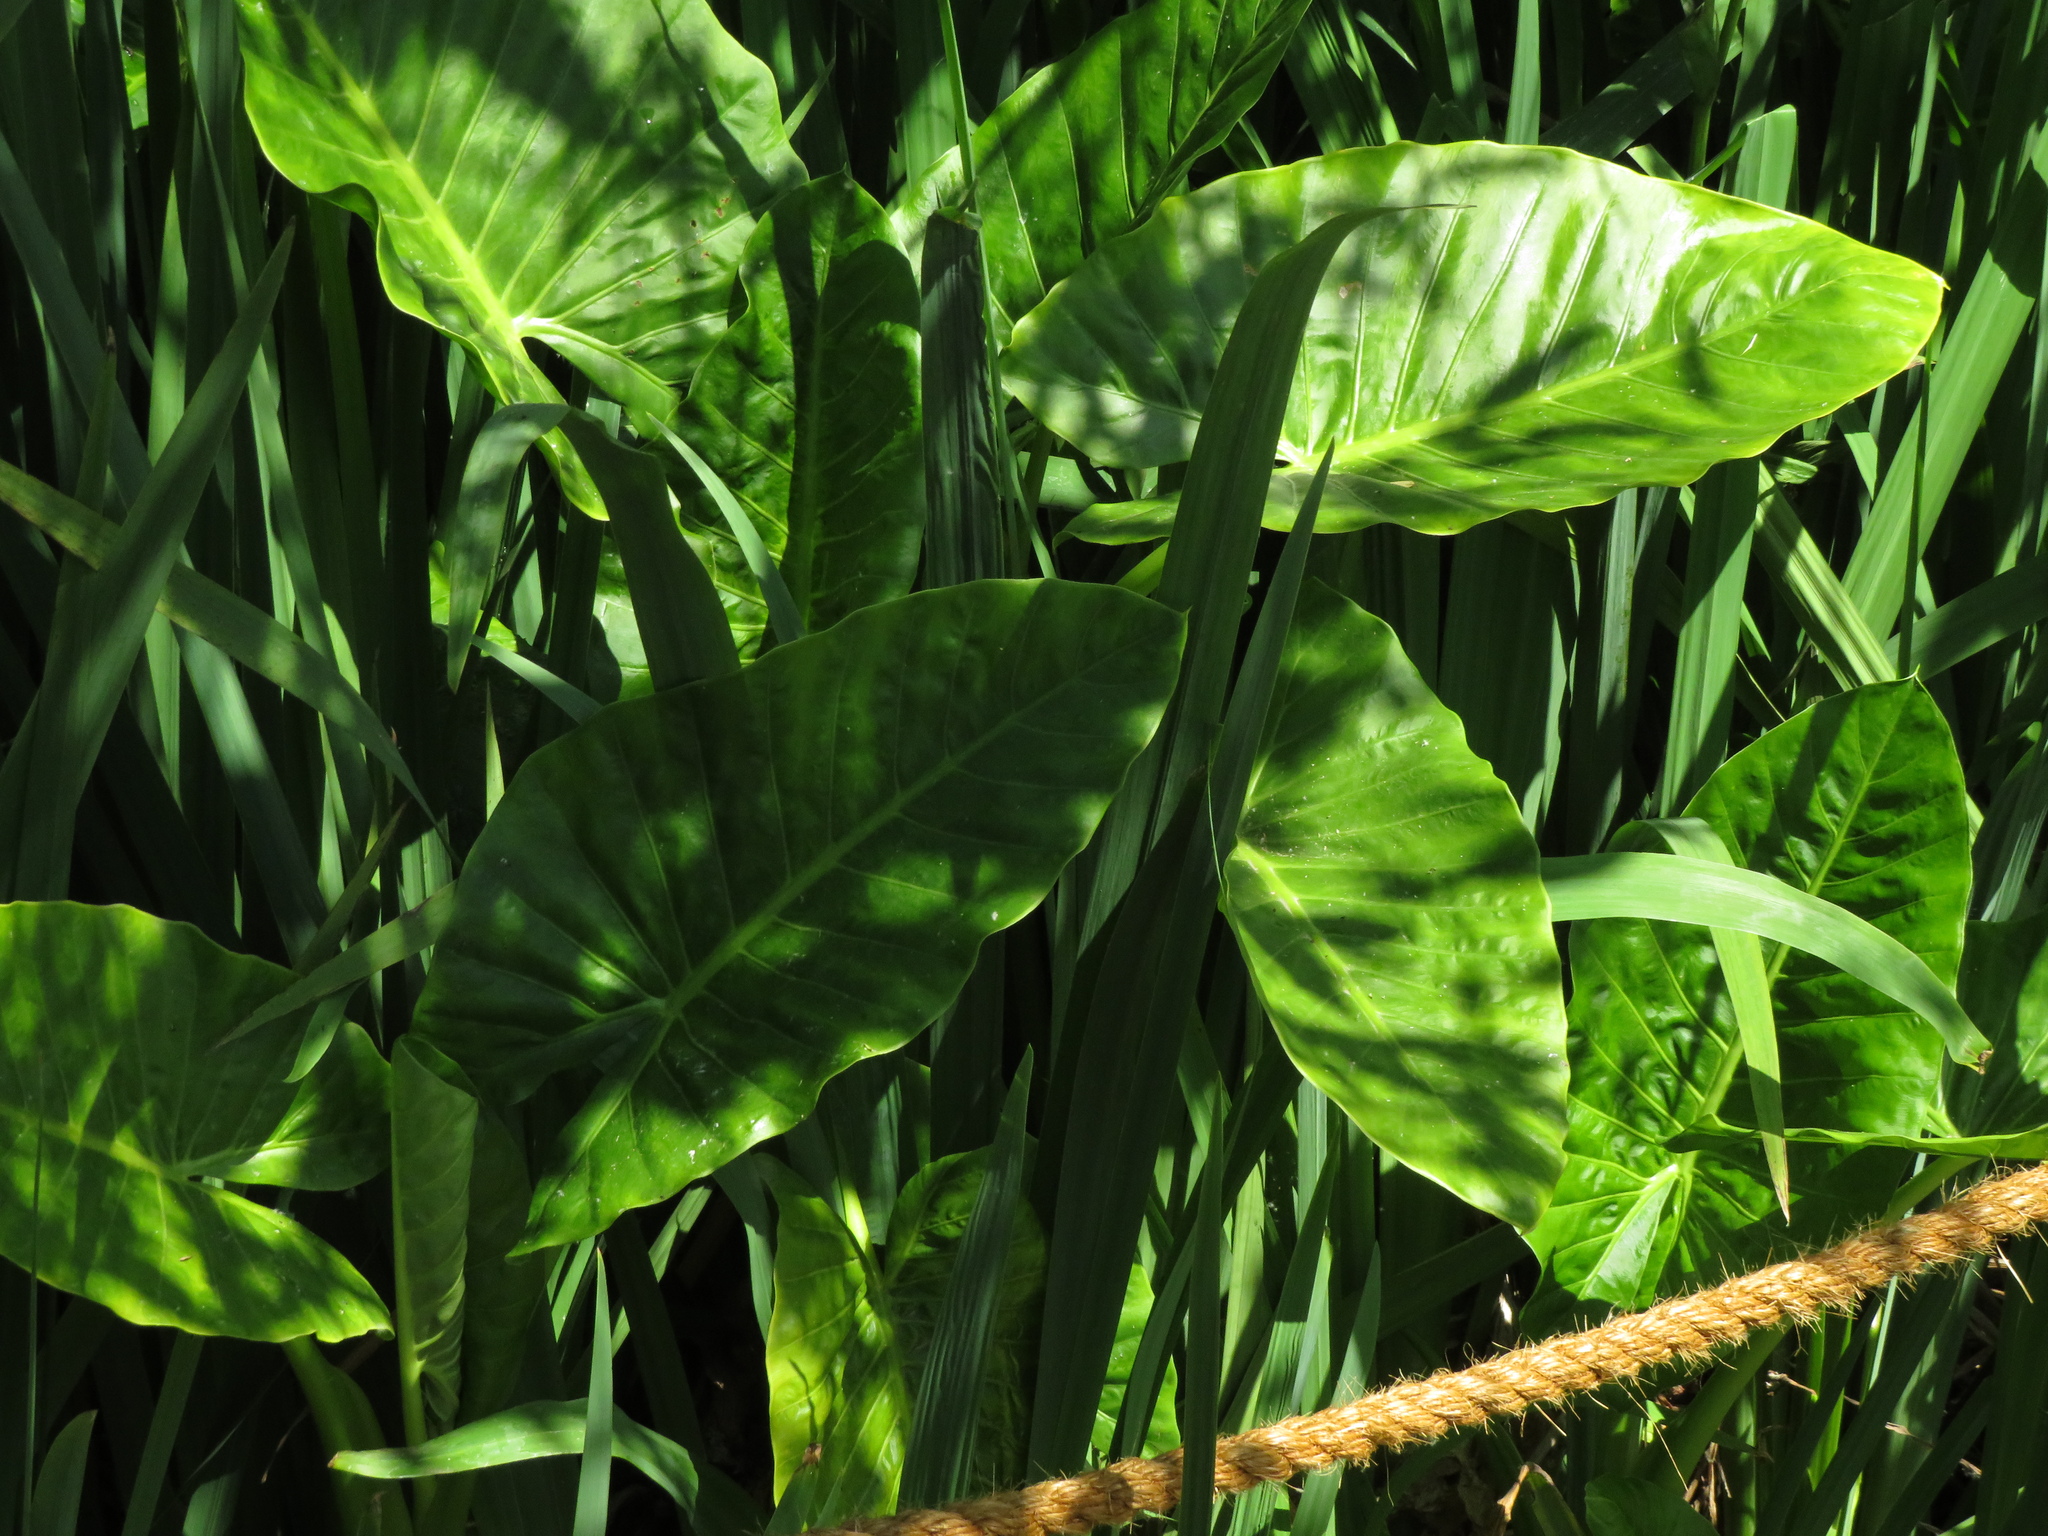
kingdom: Plantae
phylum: Tracheophyta
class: Liliopsida
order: Alismatales
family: Araceae
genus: Alocasia
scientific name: Alocasia macrorrhizos
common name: Giant taro
